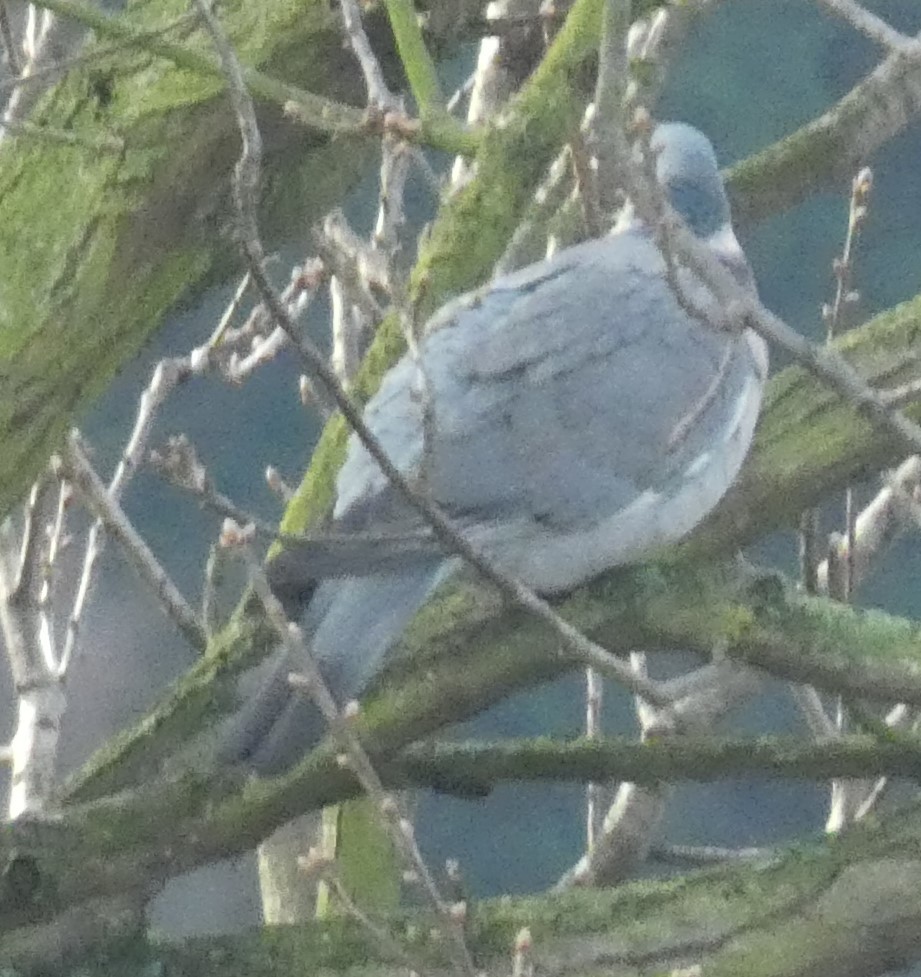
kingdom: Animalia
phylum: Chordata
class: Aves
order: Columbiformes
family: Columbidae
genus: Columba
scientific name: Columba palumbus
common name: Common wood pigeon
